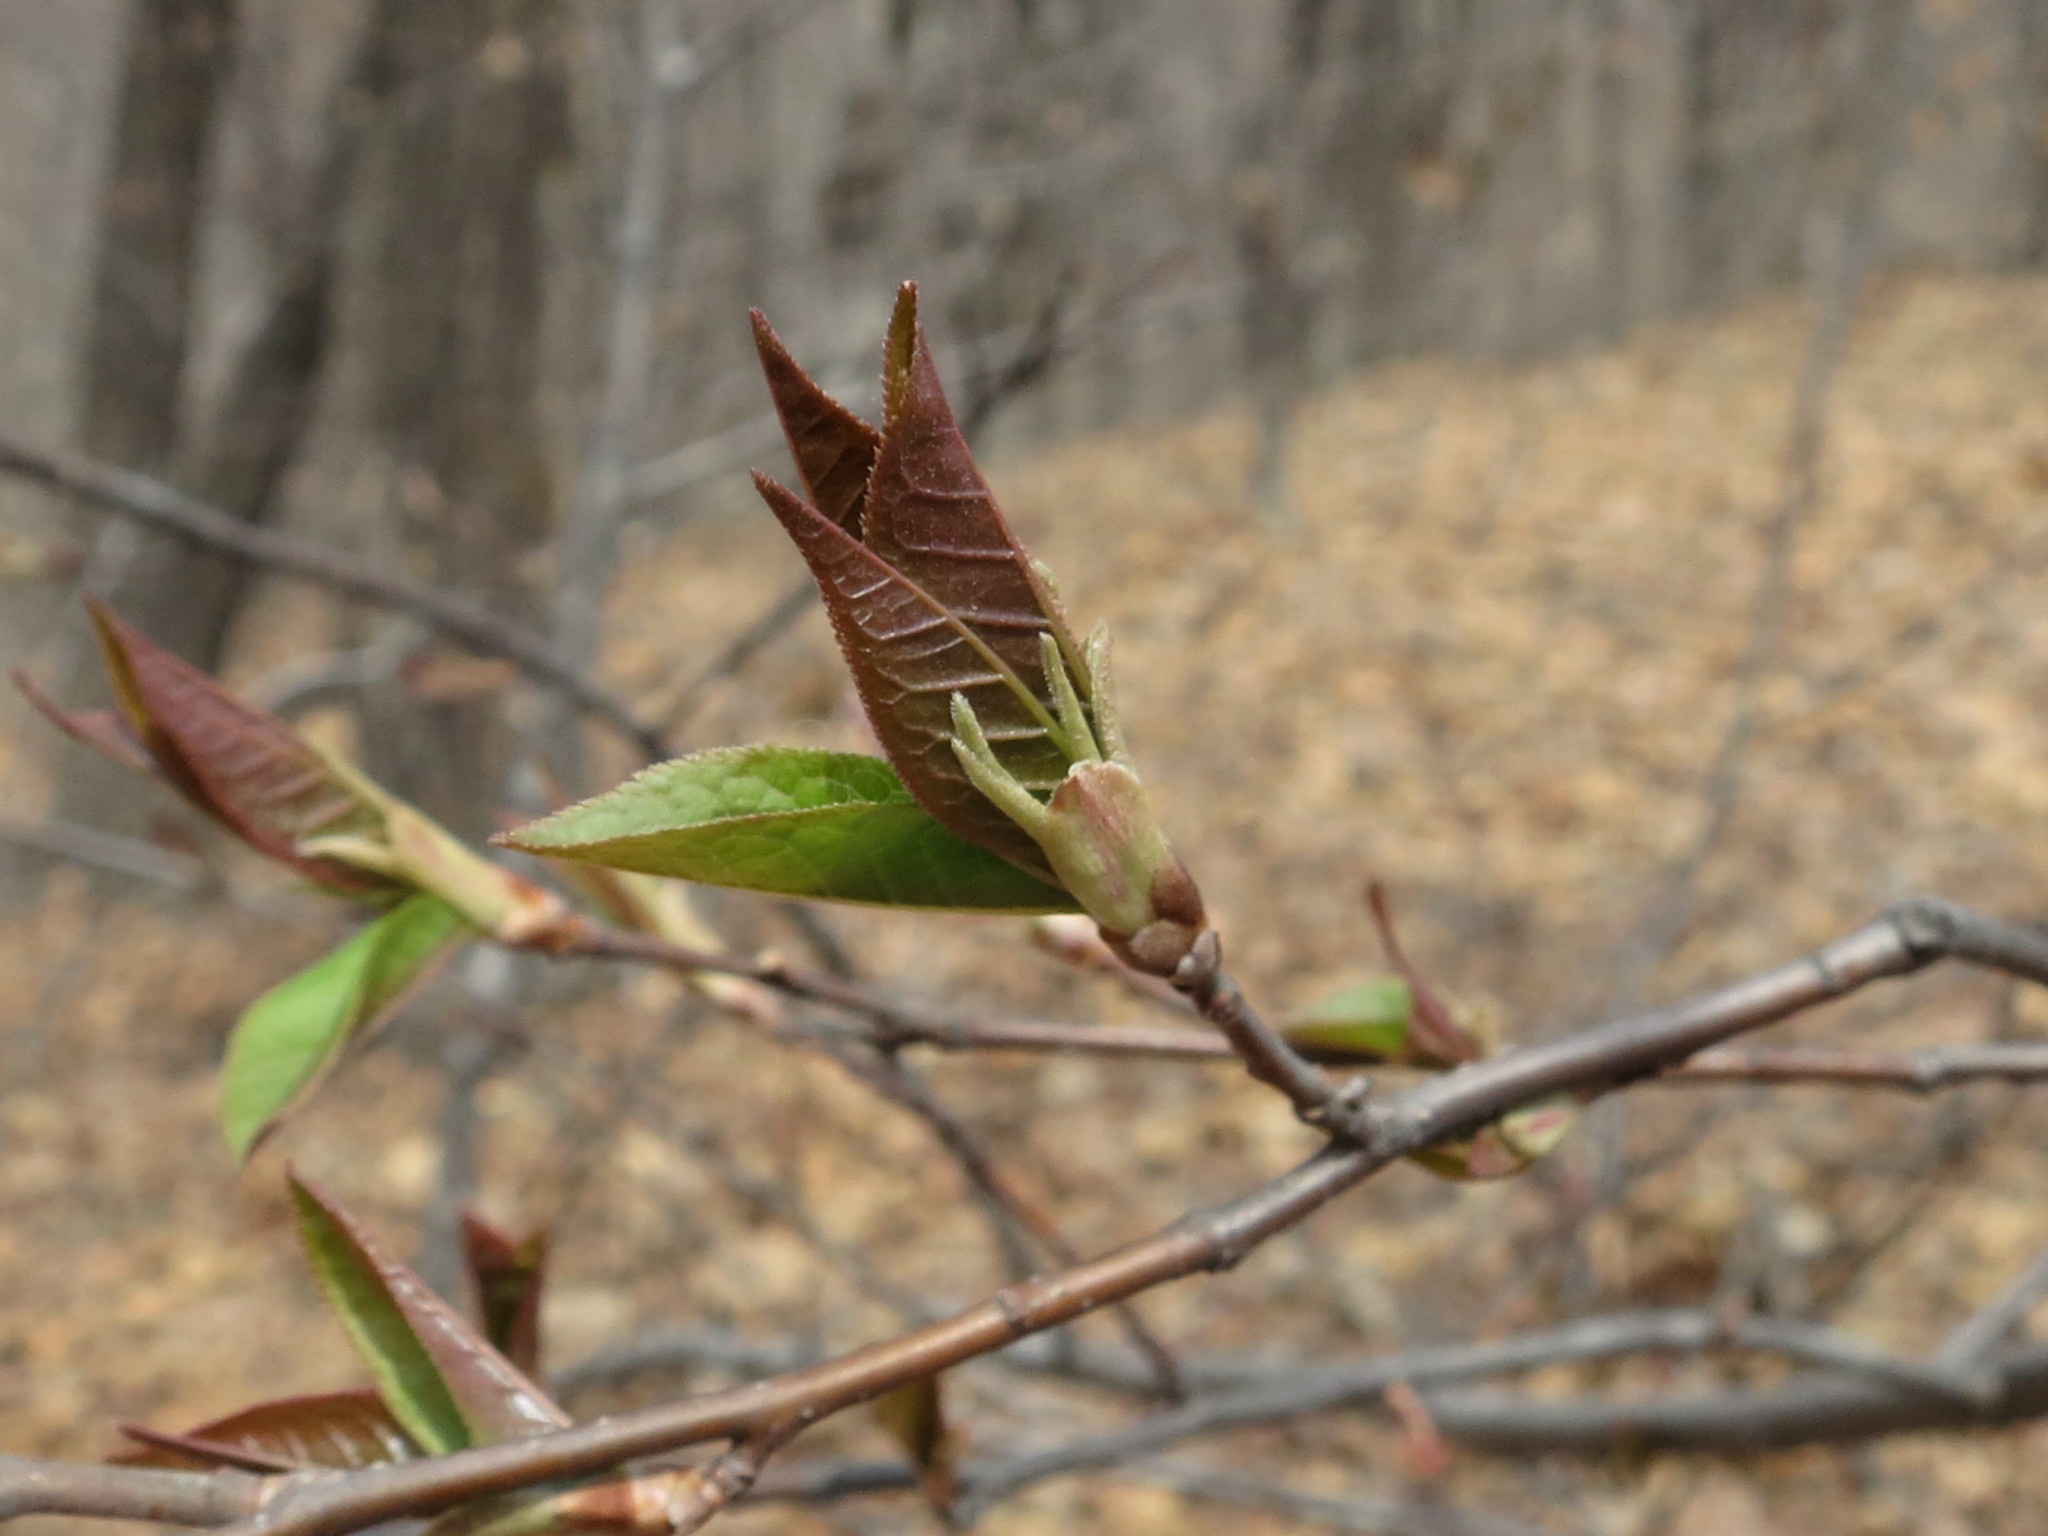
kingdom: Plantae
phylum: Tracheophyta
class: Magnoliopsida
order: Rosales
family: Rosaceae
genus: Prunus
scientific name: Prunus padus
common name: Bird cherry
